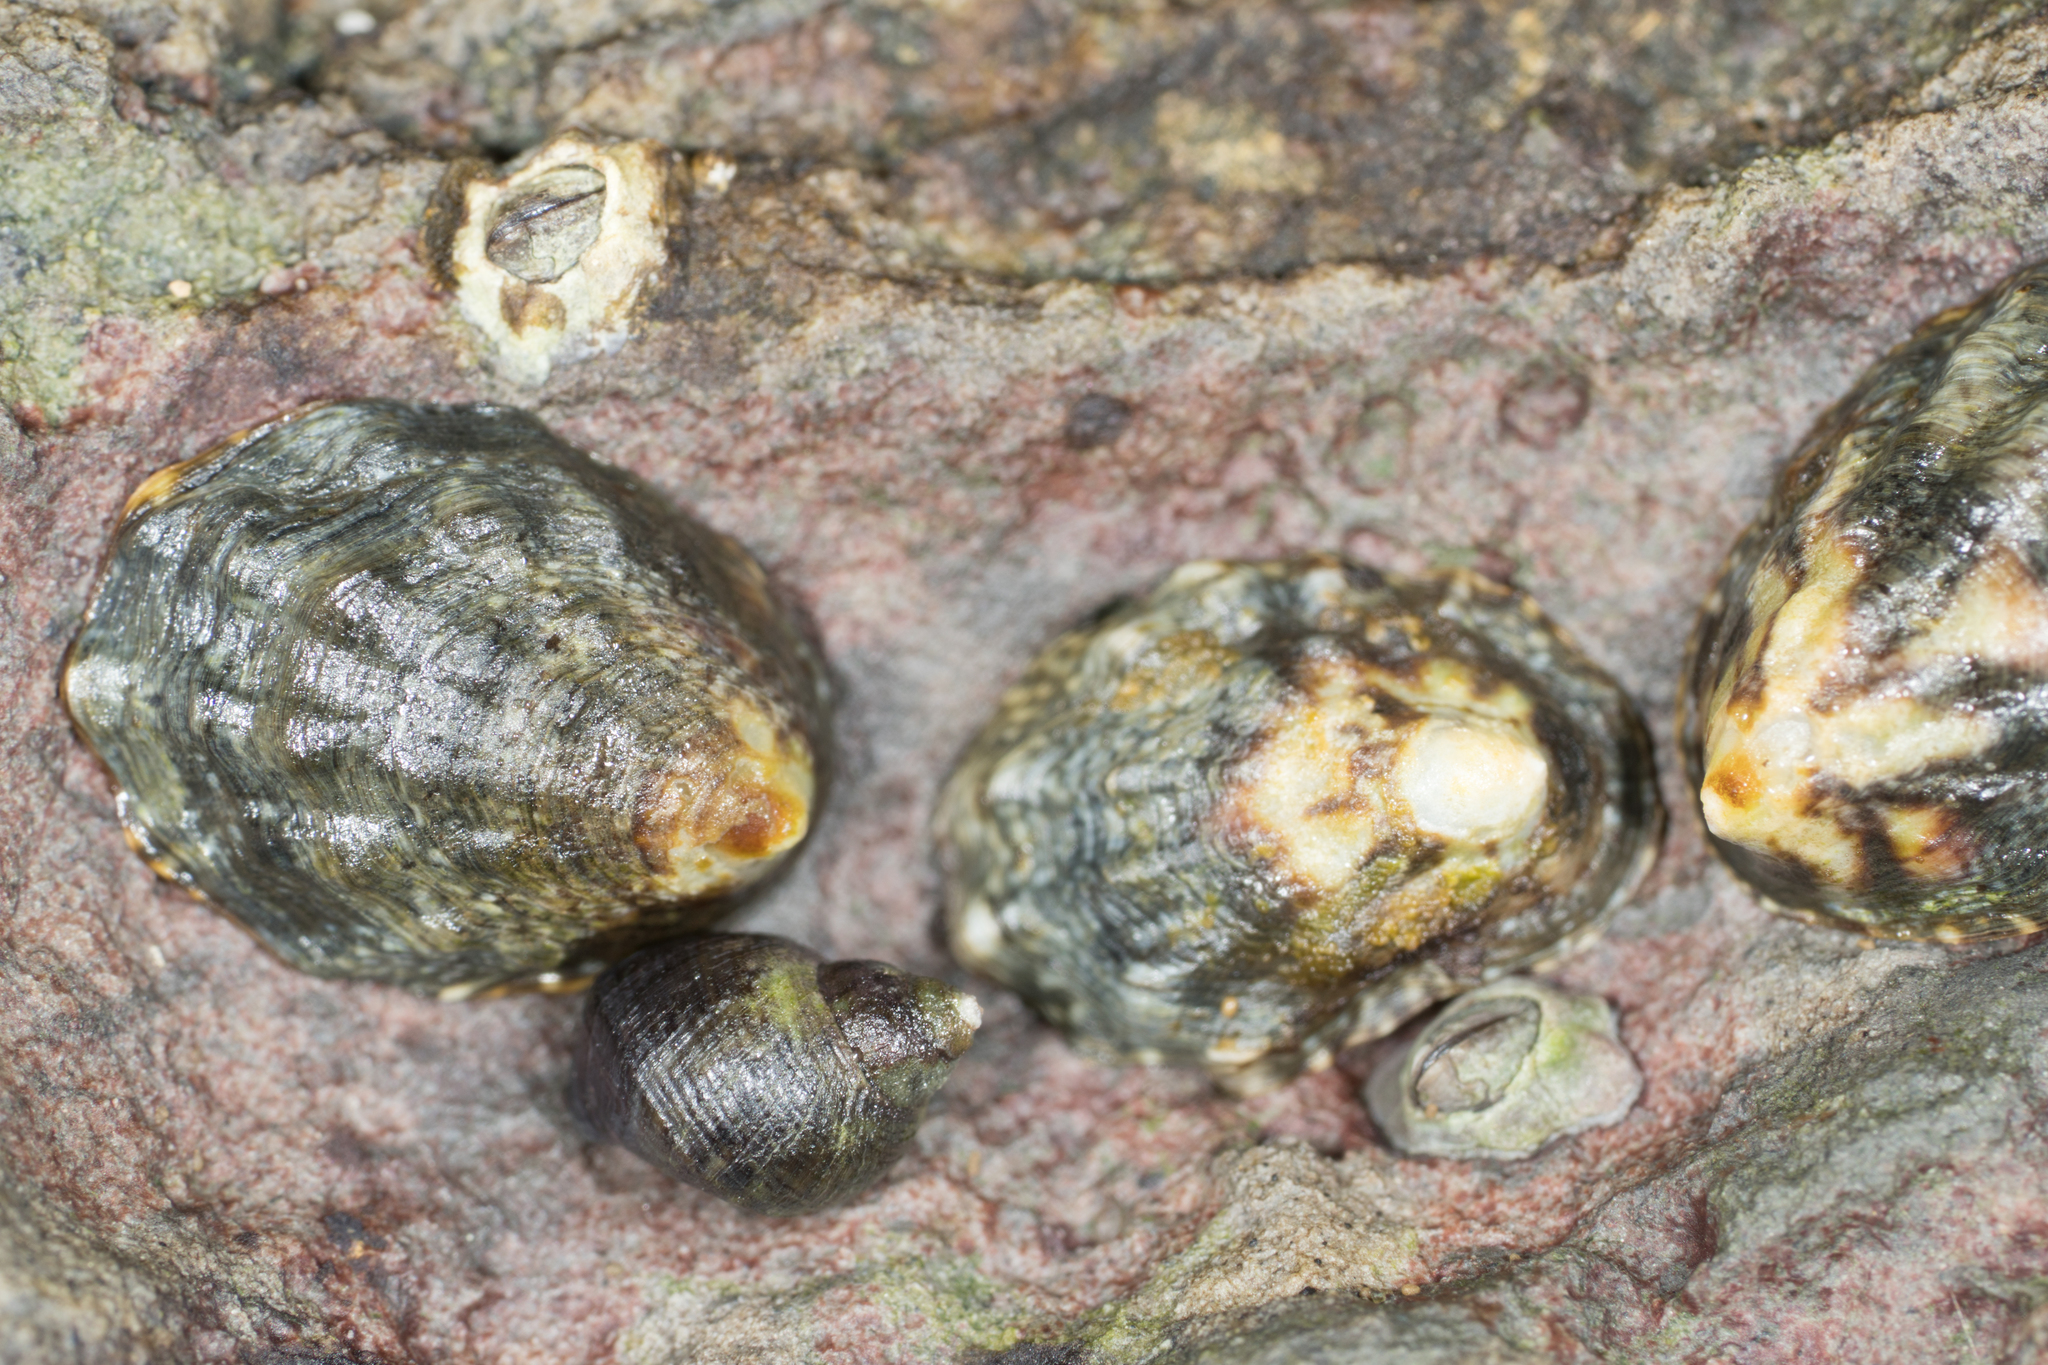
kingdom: Animalia
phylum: Mollusca
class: Gastropoda
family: Lottiidae
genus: Lottia
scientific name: Lottia digitalis
